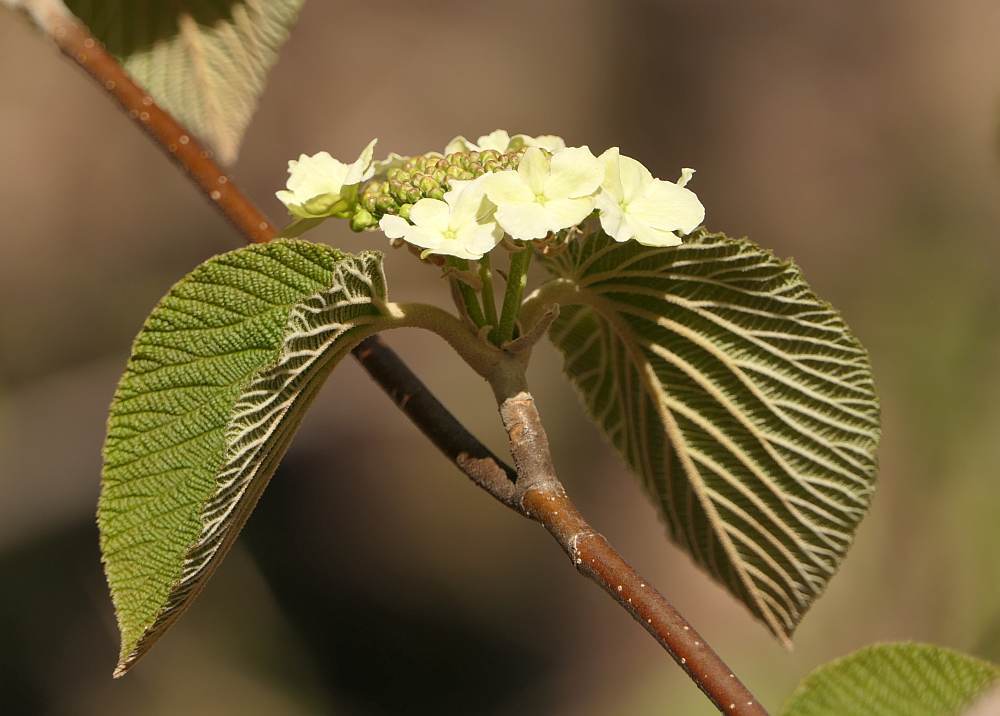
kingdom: Plantae
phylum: Tracheophyta
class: Magnoliopsida
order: Dipsacales
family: Viburnaceae
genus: Viburnum
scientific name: Viburnum lantanoides
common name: Hobblebush
